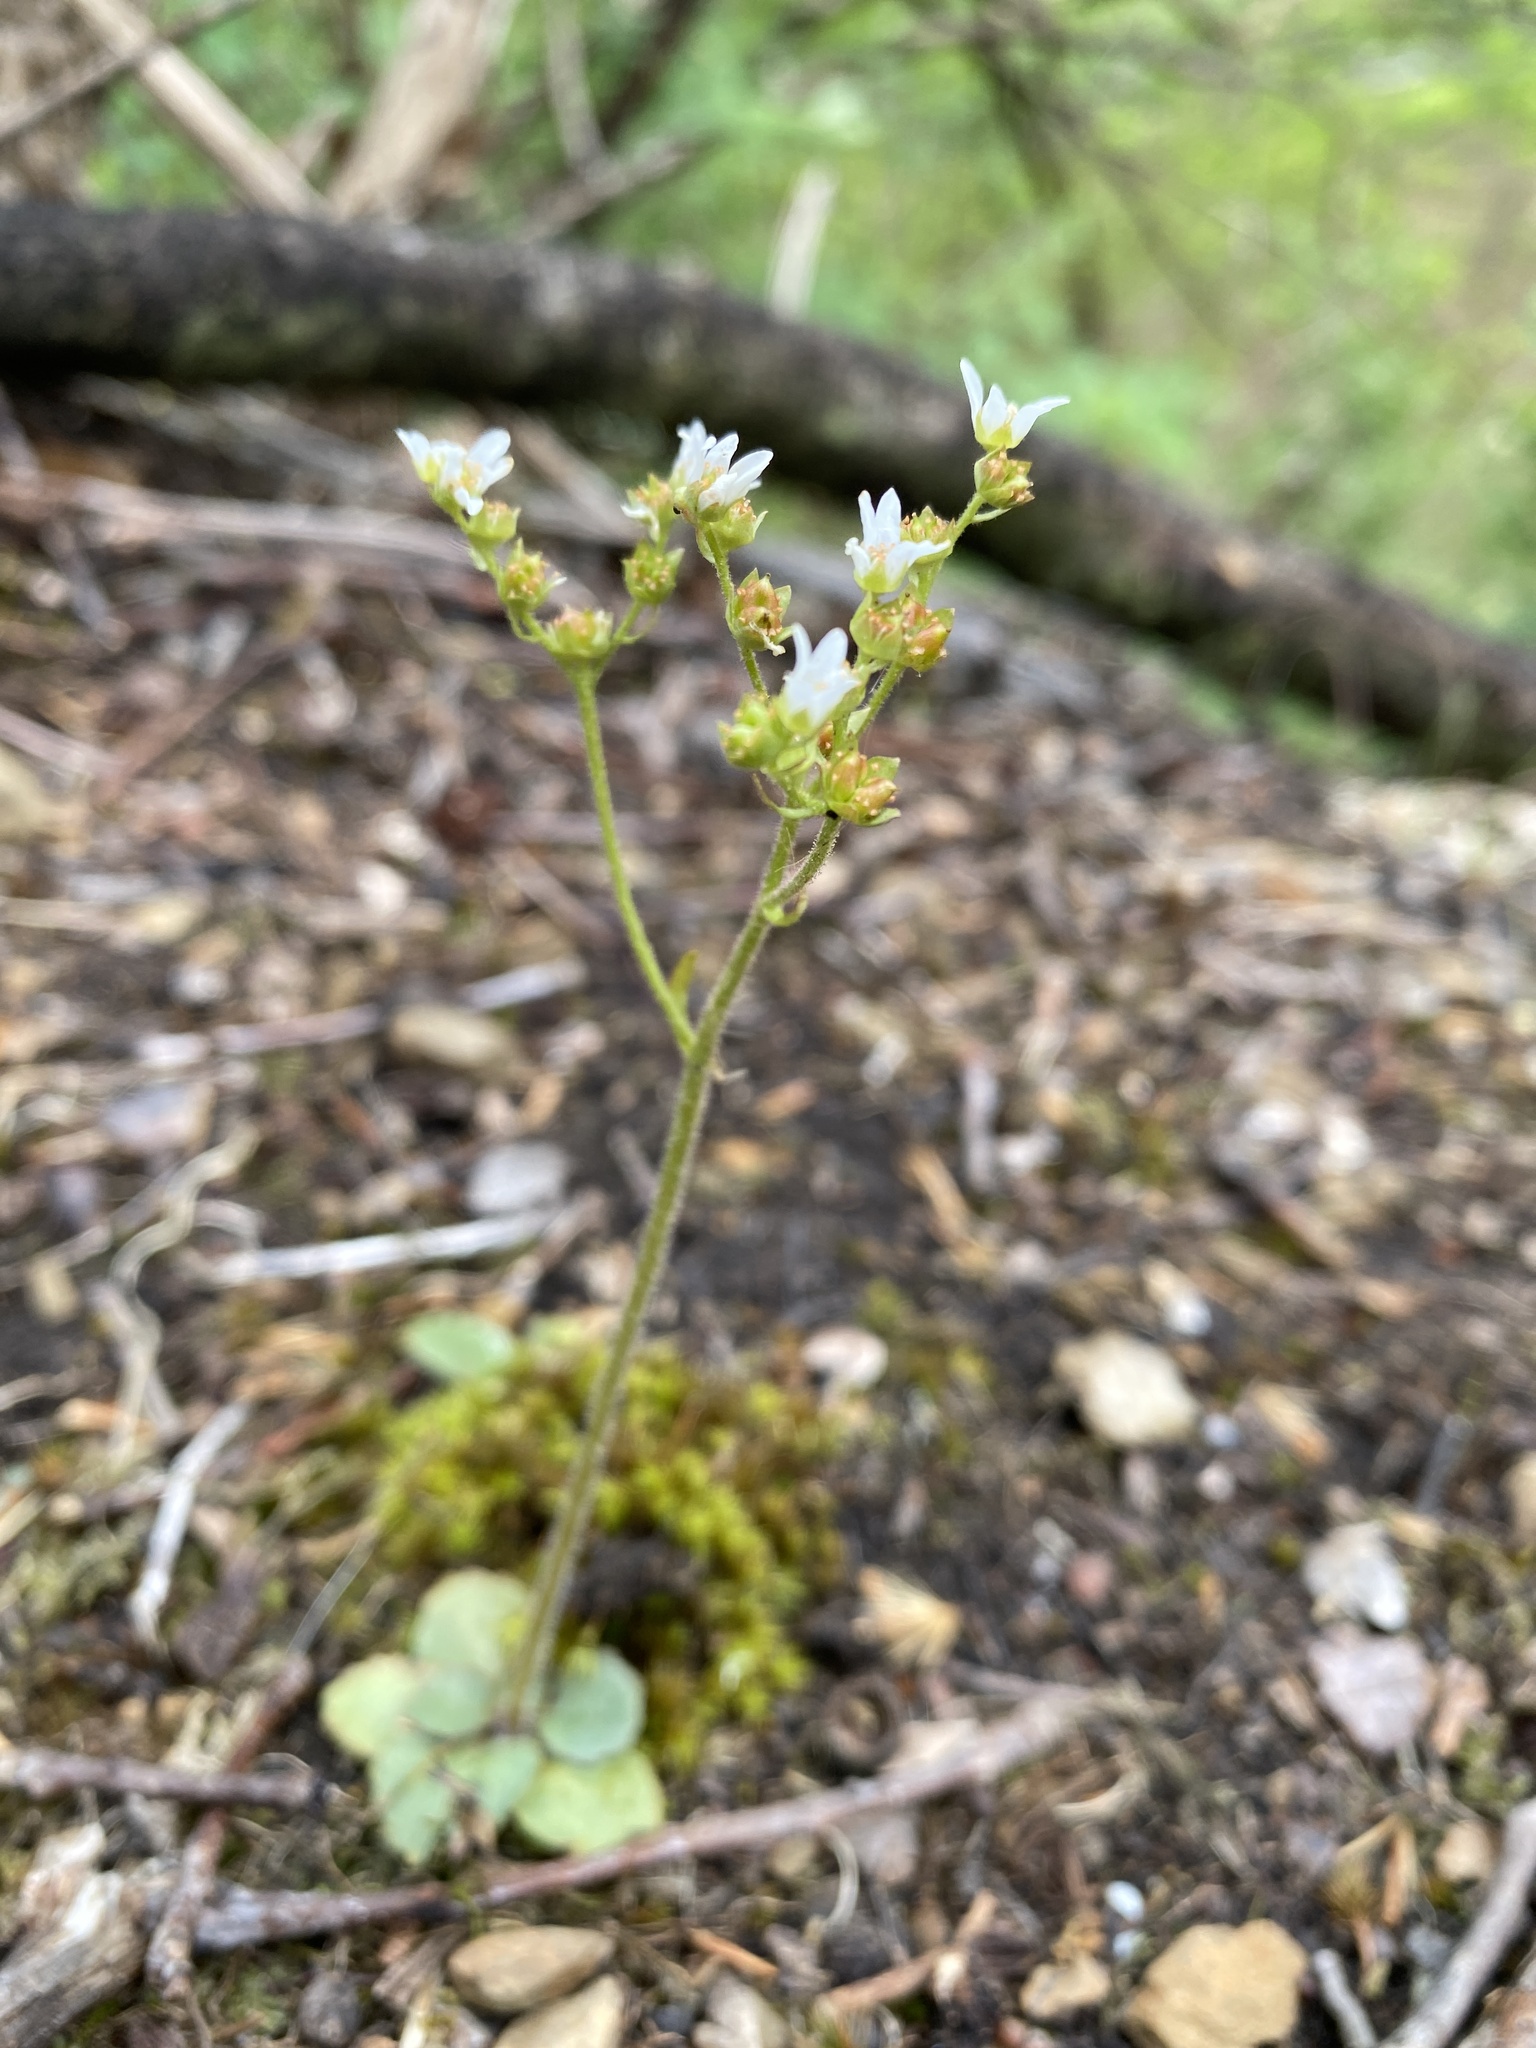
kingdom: Plantae
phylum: Tracheophyta
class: Magnoliopsida
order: Saxifragales
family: Saxifragaceae
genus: Micranthes
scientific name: Micranthes virginiensis
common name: Early saxifrage
